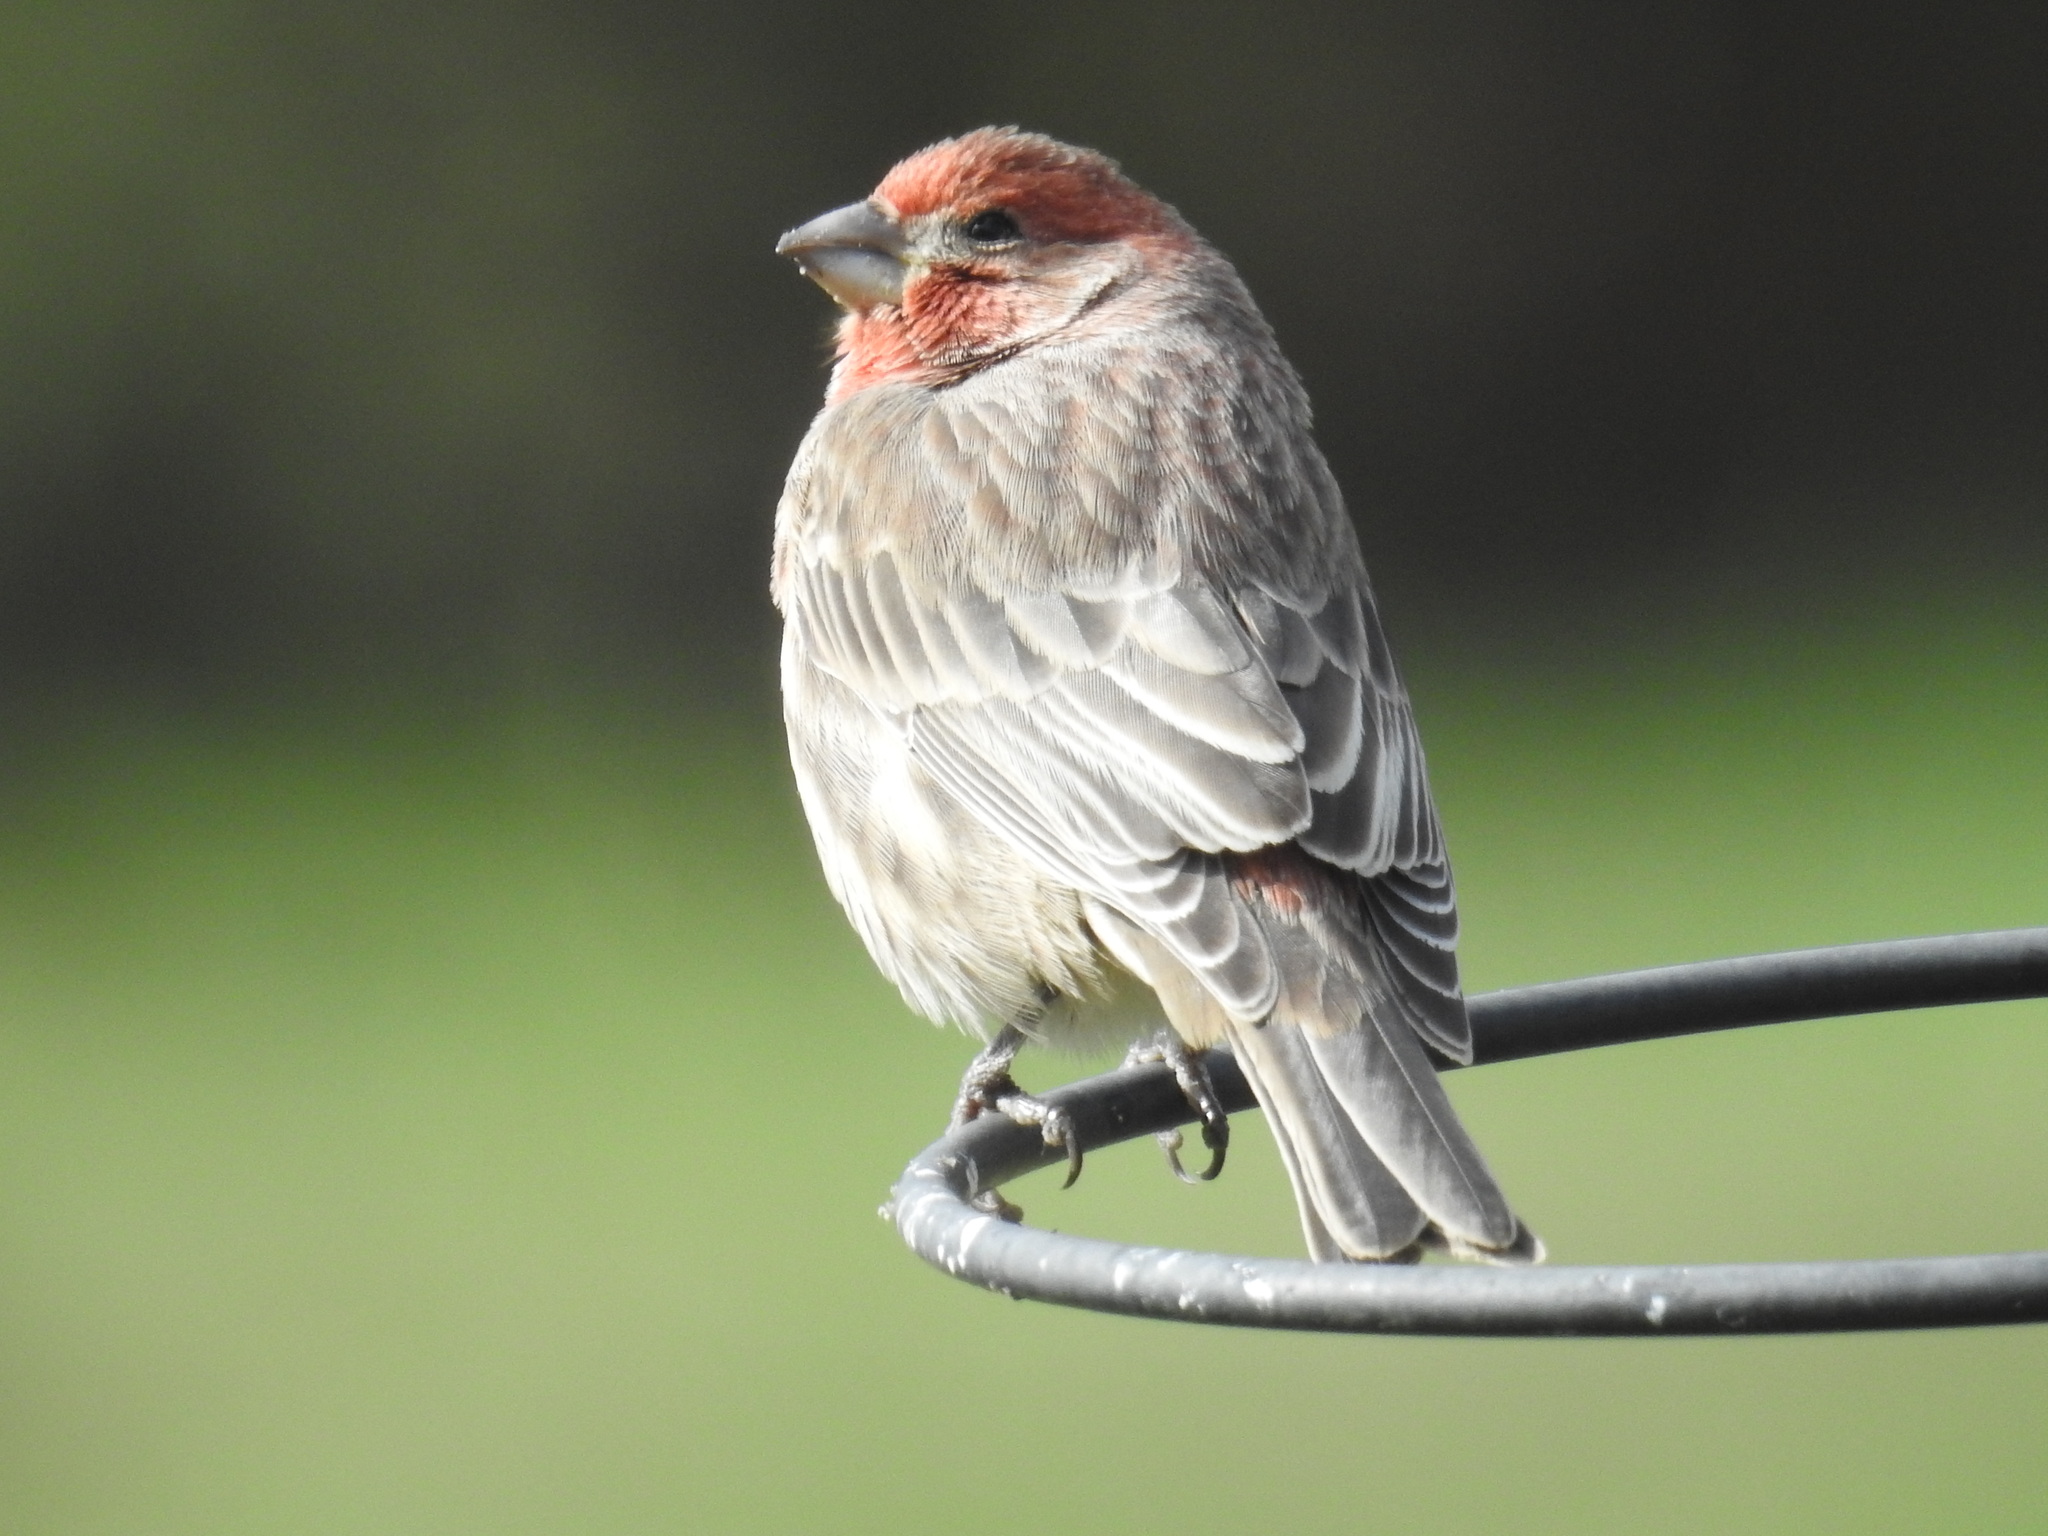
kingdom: Animalia
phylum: Chordata
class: Aves
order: Passeriformes
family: Fringillidae
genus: Haemorhous
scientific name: Haemorhous mexicanus
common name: House finch
